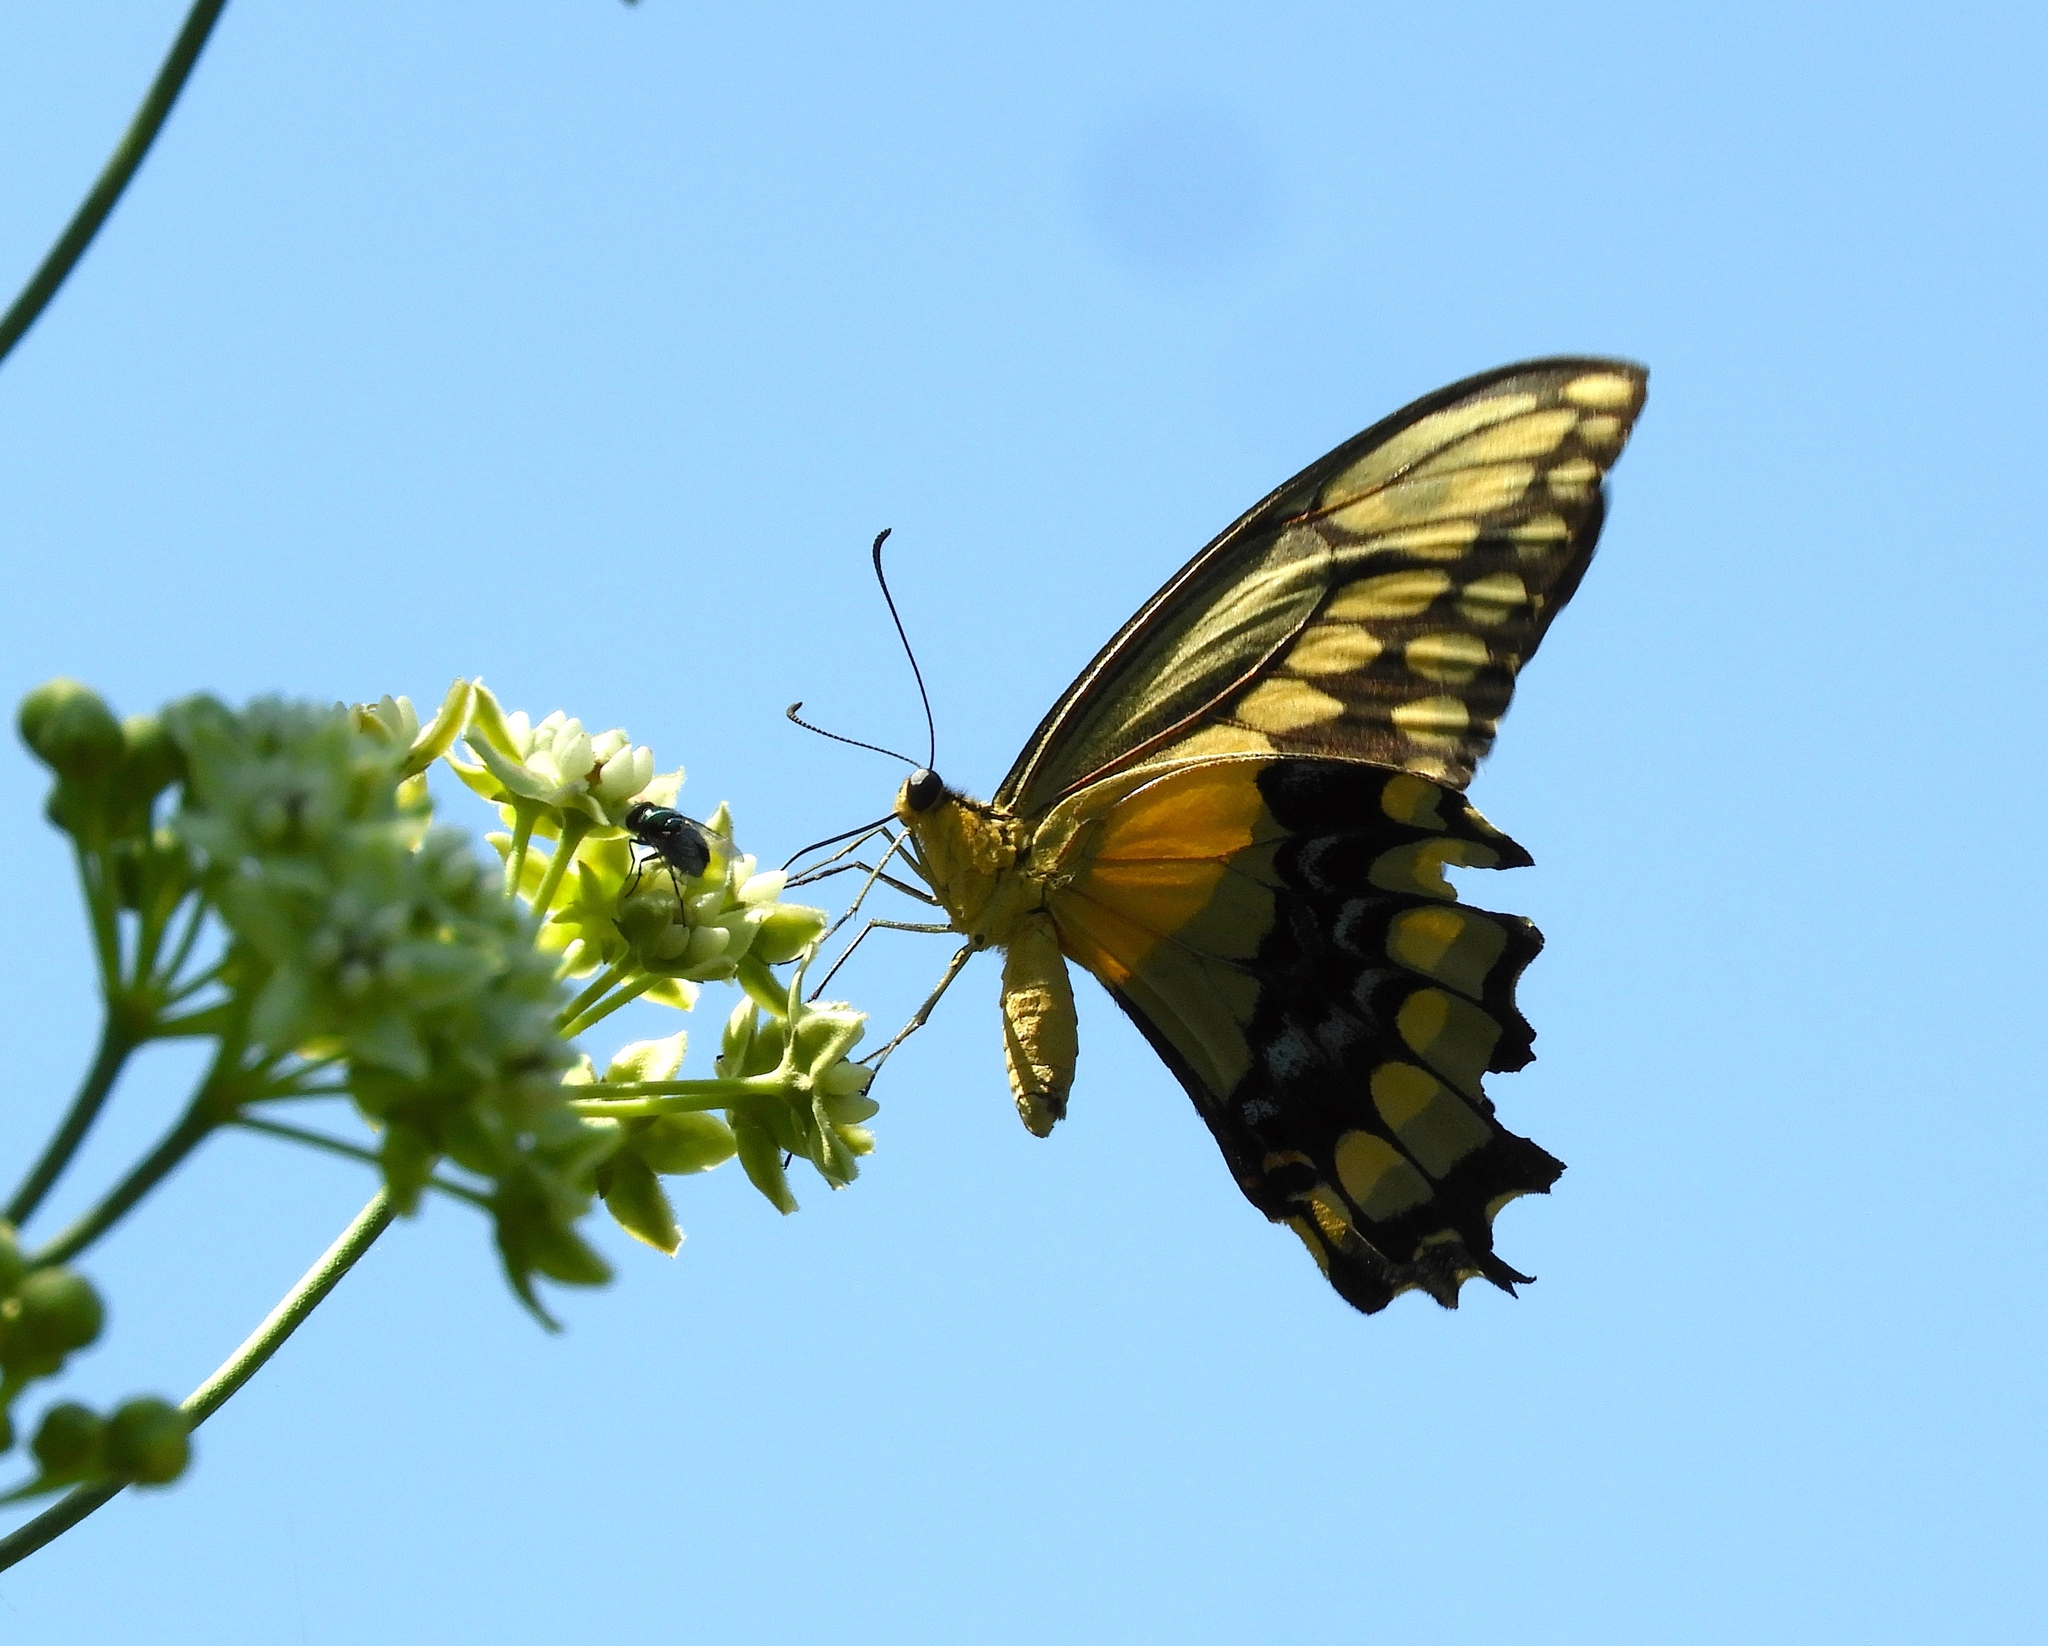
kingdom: Animalia
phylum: Arthropoda
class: Insecta
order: Lepidoptera
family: Papilionidae
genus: Papilio
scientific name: Papilio rumiko
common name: Western giant swallowtail
